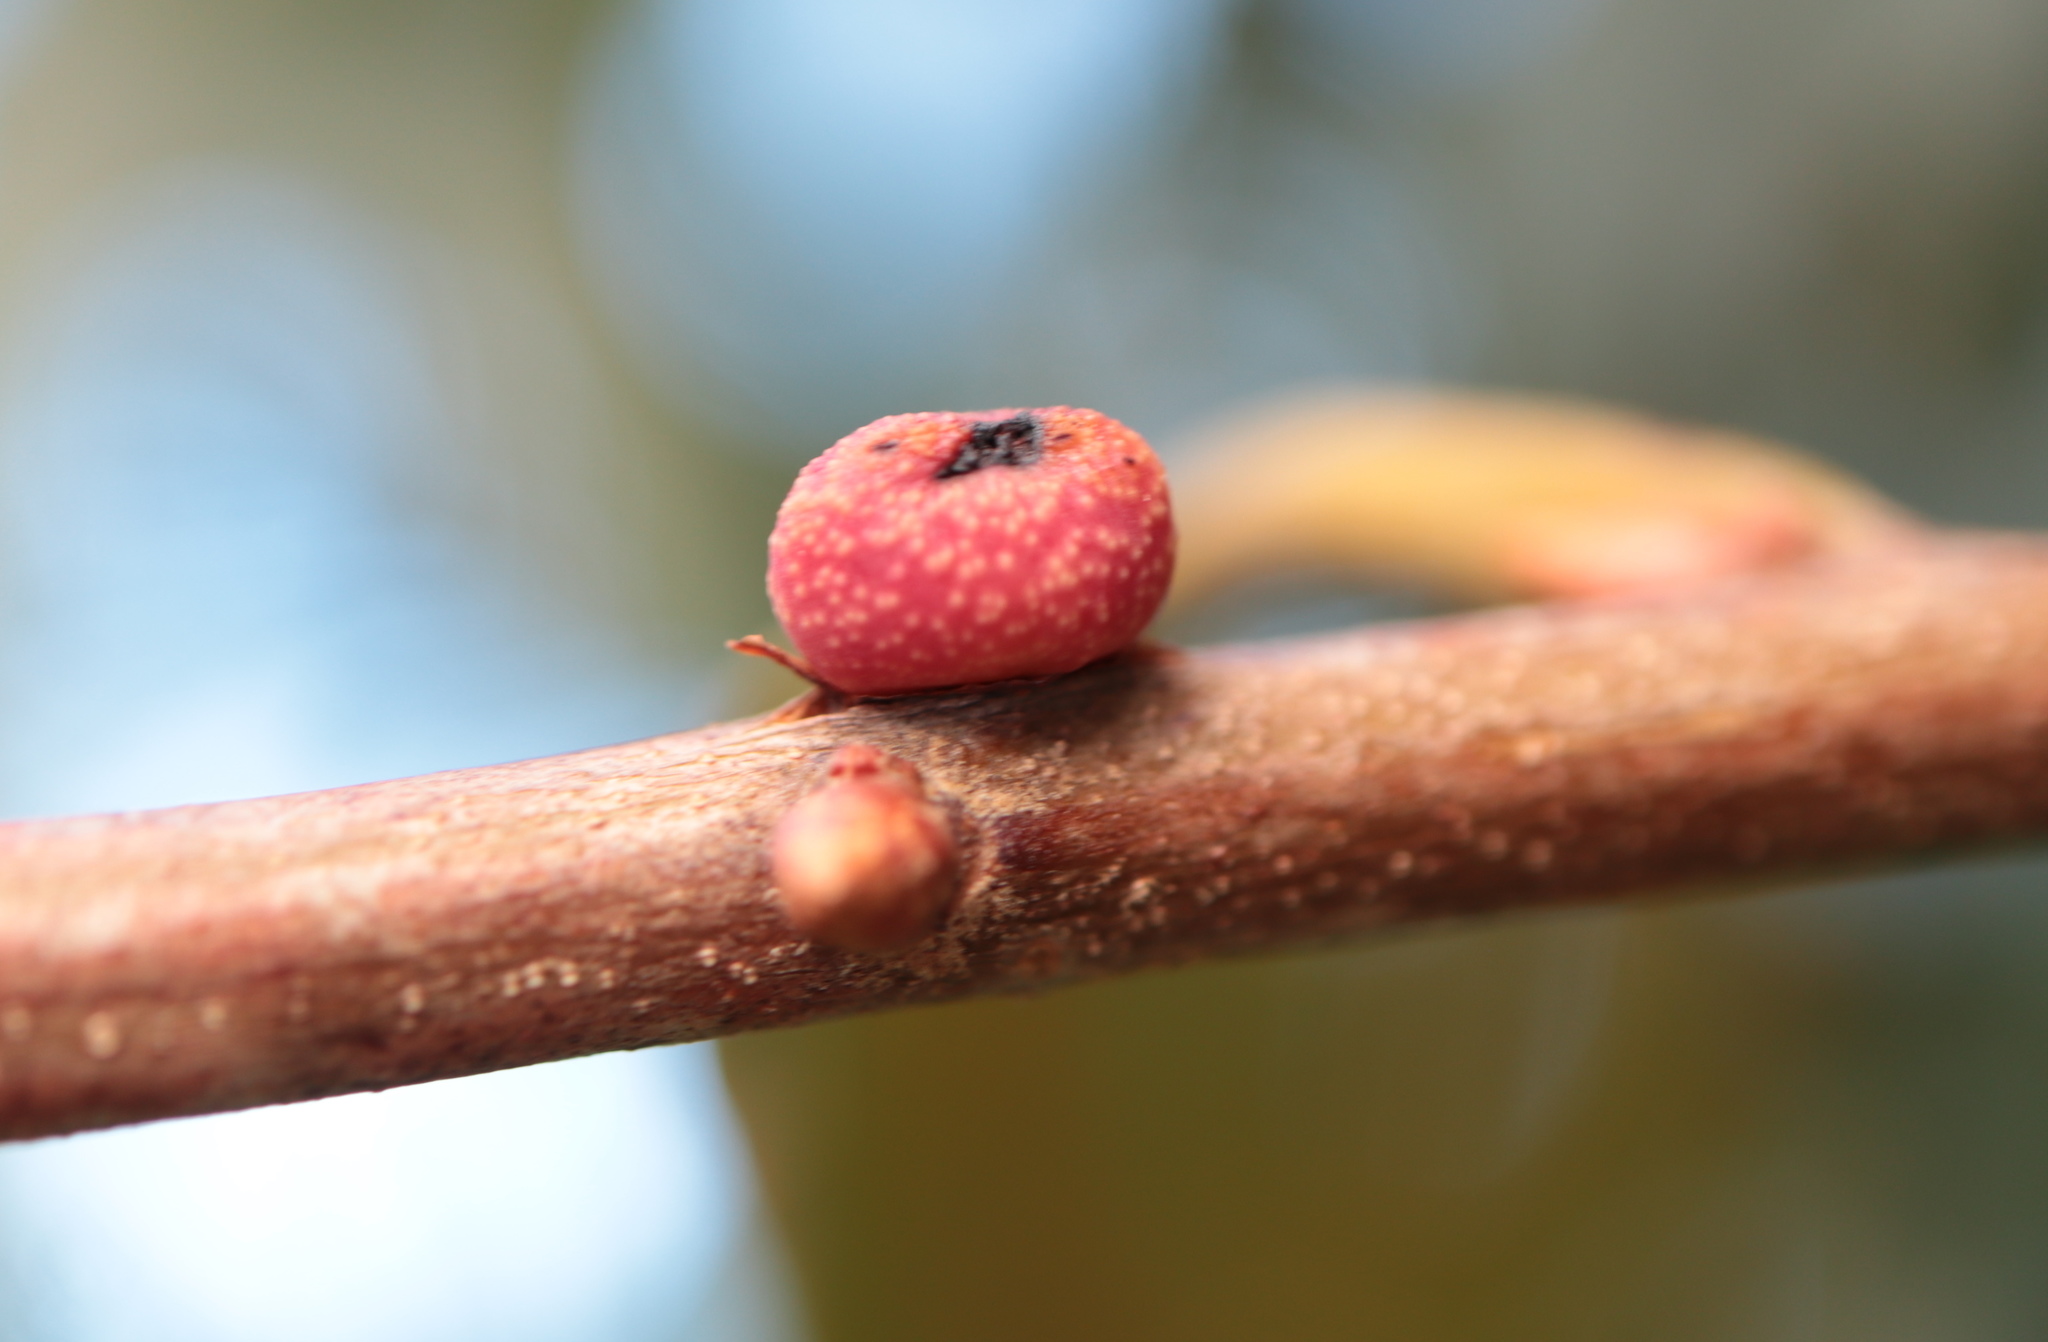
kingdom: Animalia
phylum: Arthropoda
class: Insecta
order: Hymenoptera
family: Cynipidae
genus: Kokkocynips
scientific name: Kokkocynips imbricariae
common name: Banded bullet gall wasp
